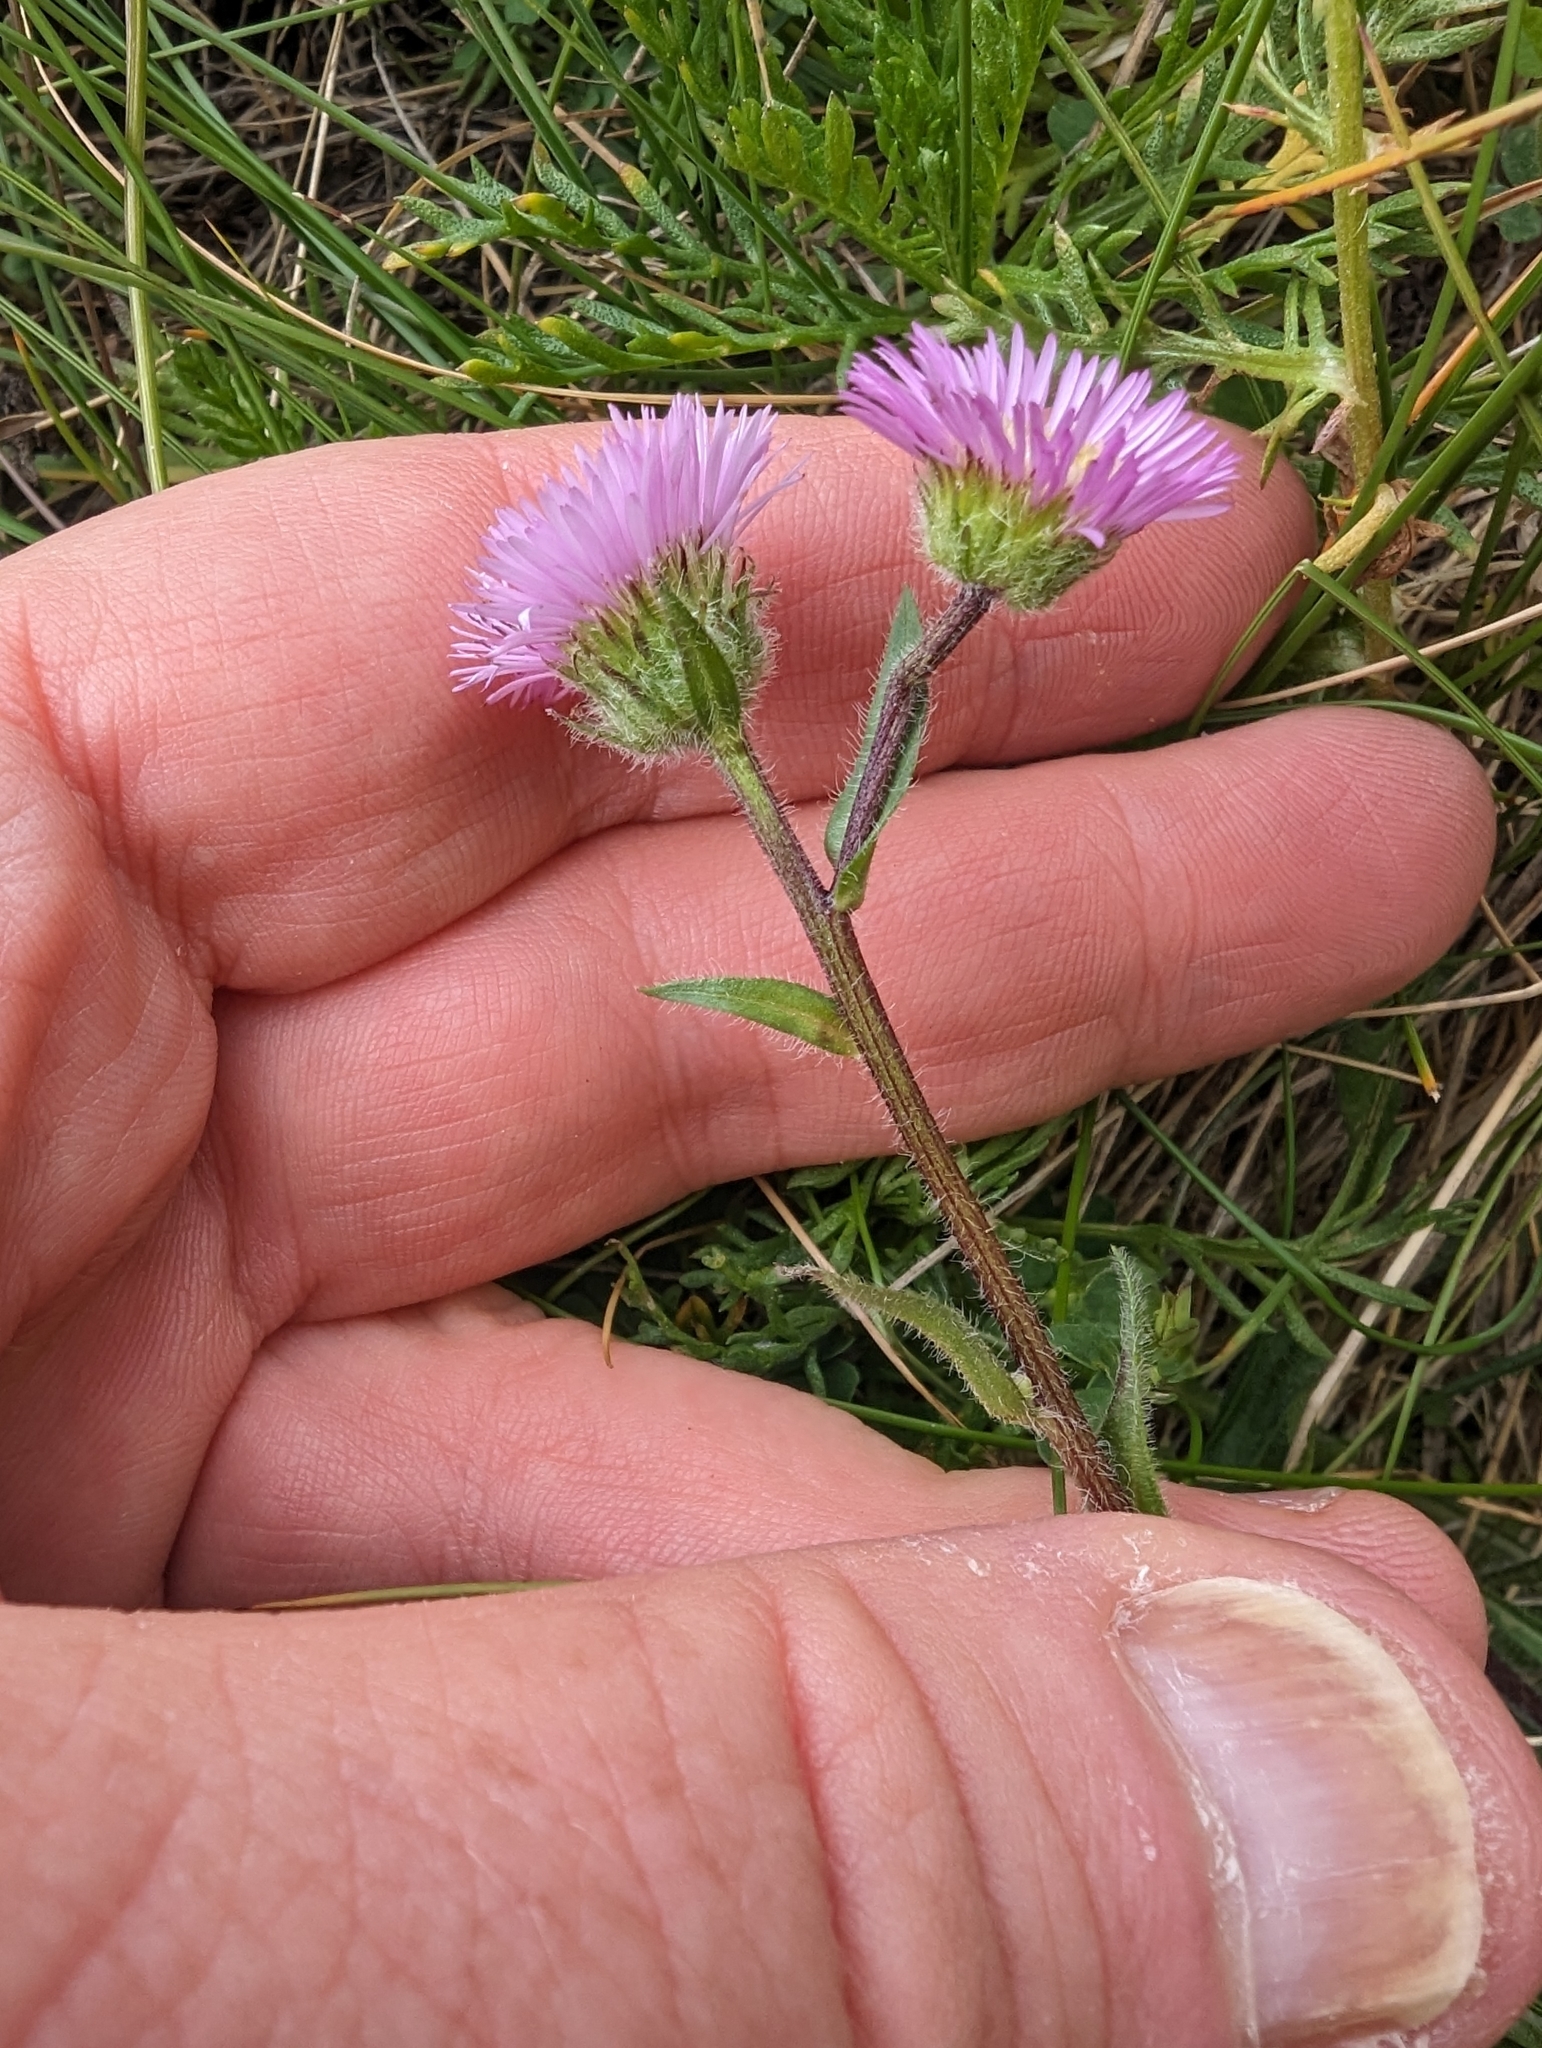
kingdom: Plantae
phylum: Tracheophyta
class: Magnoliopsida
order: Asterales
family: Asteraceae
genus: Erigeron
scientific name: Erigeron alpinus
